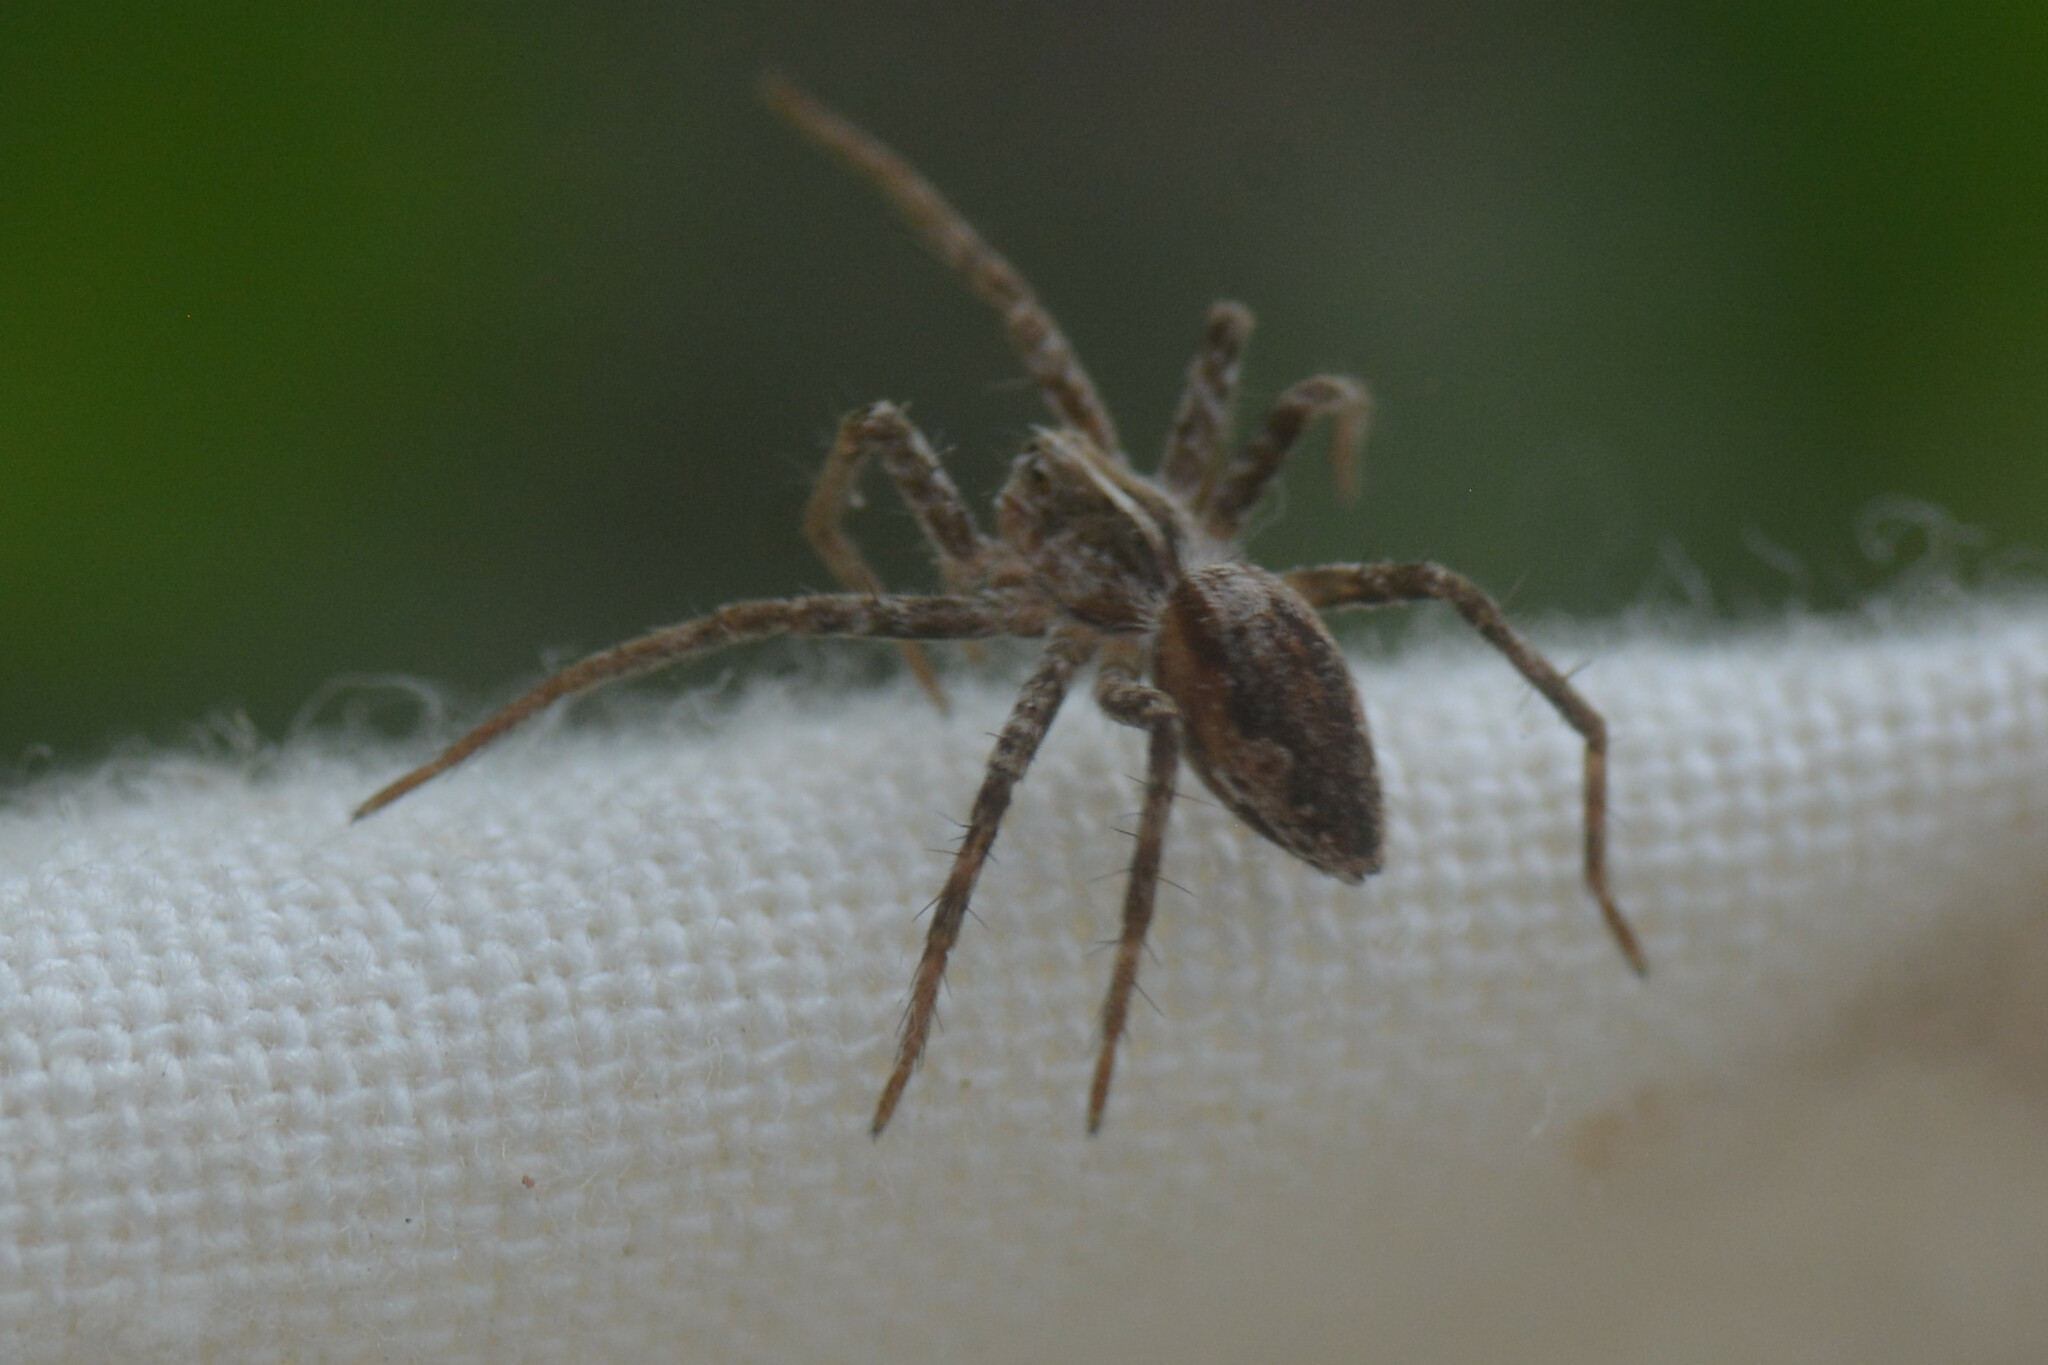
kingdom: Animalia
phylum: Arthropoda
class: Arachnida
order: Araneae
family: Pisauridae
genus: Pisaura
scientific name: Pisaura mirabilis
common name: Tent spider
